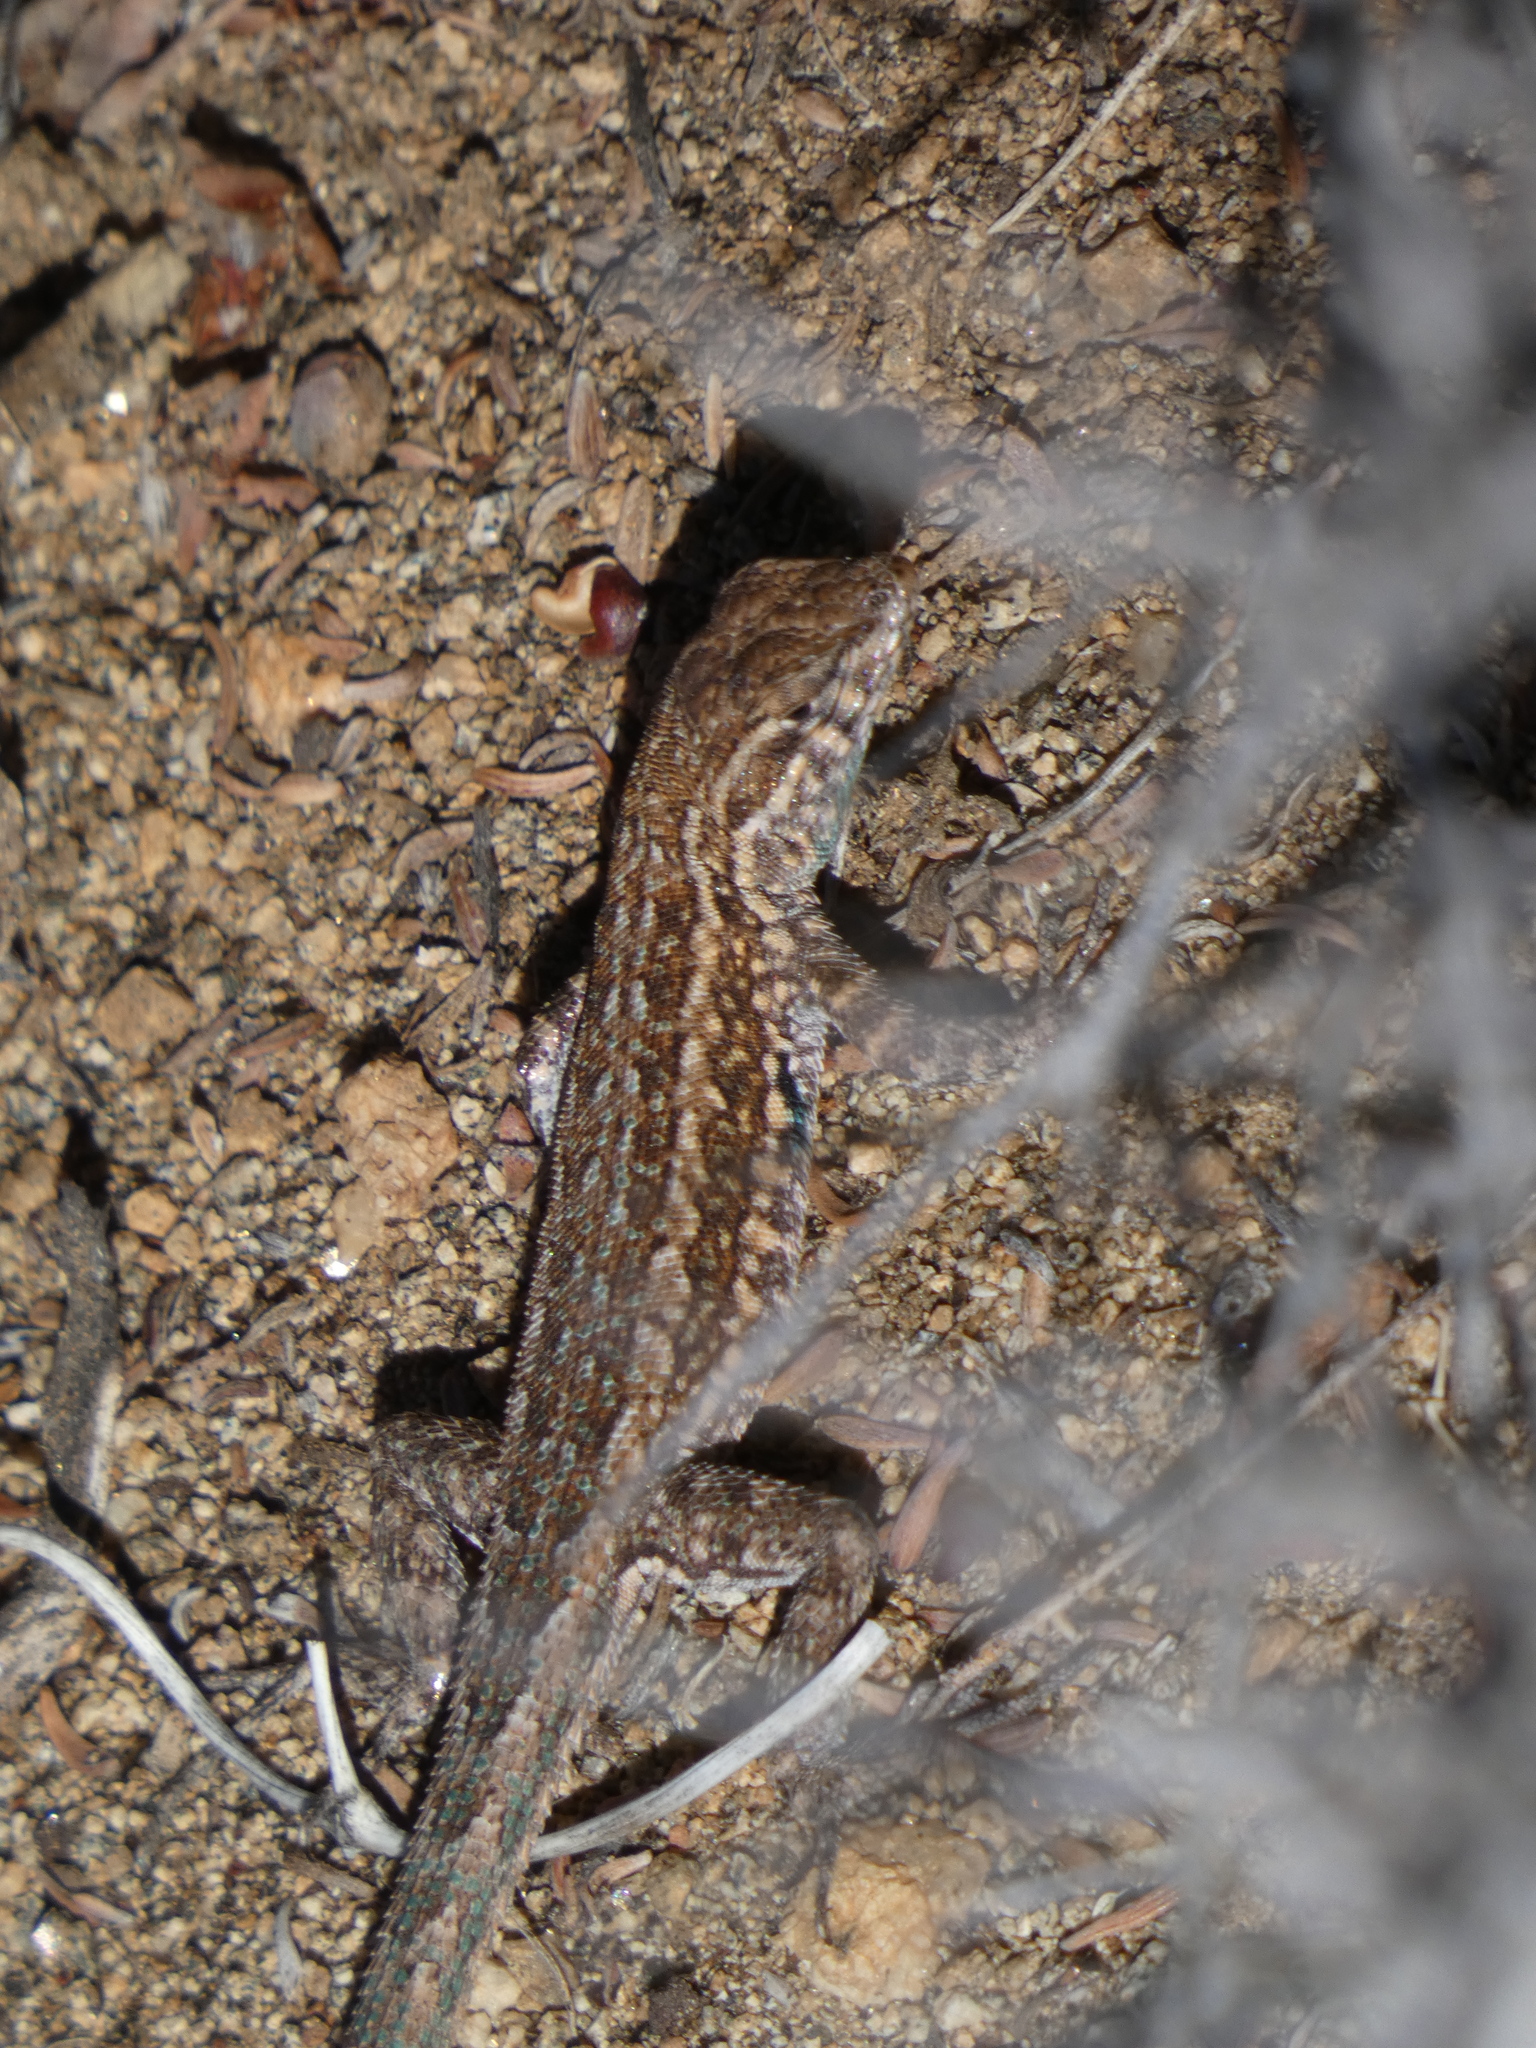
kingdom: Animalia
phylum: Chordata
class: Squamata
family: Phrynosomatidae
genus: Uta
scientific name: Uta stansburiana
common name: Side-blotched lizard
